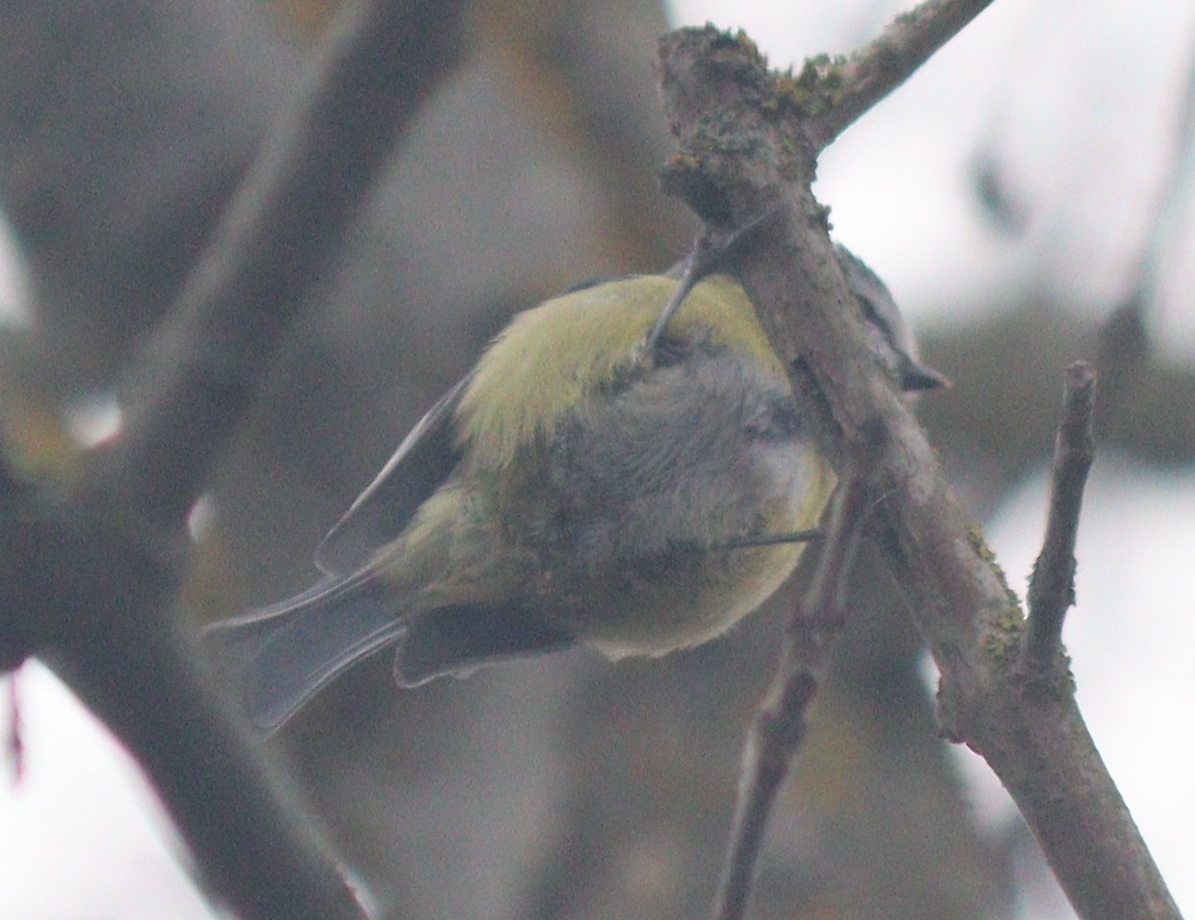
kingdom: Animalia
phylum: Chordata
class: Aves
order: Passeriformes
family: Paridae
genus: Cyanistes
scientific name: Cyanistes caeruleus
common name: Eurasian blue tit
